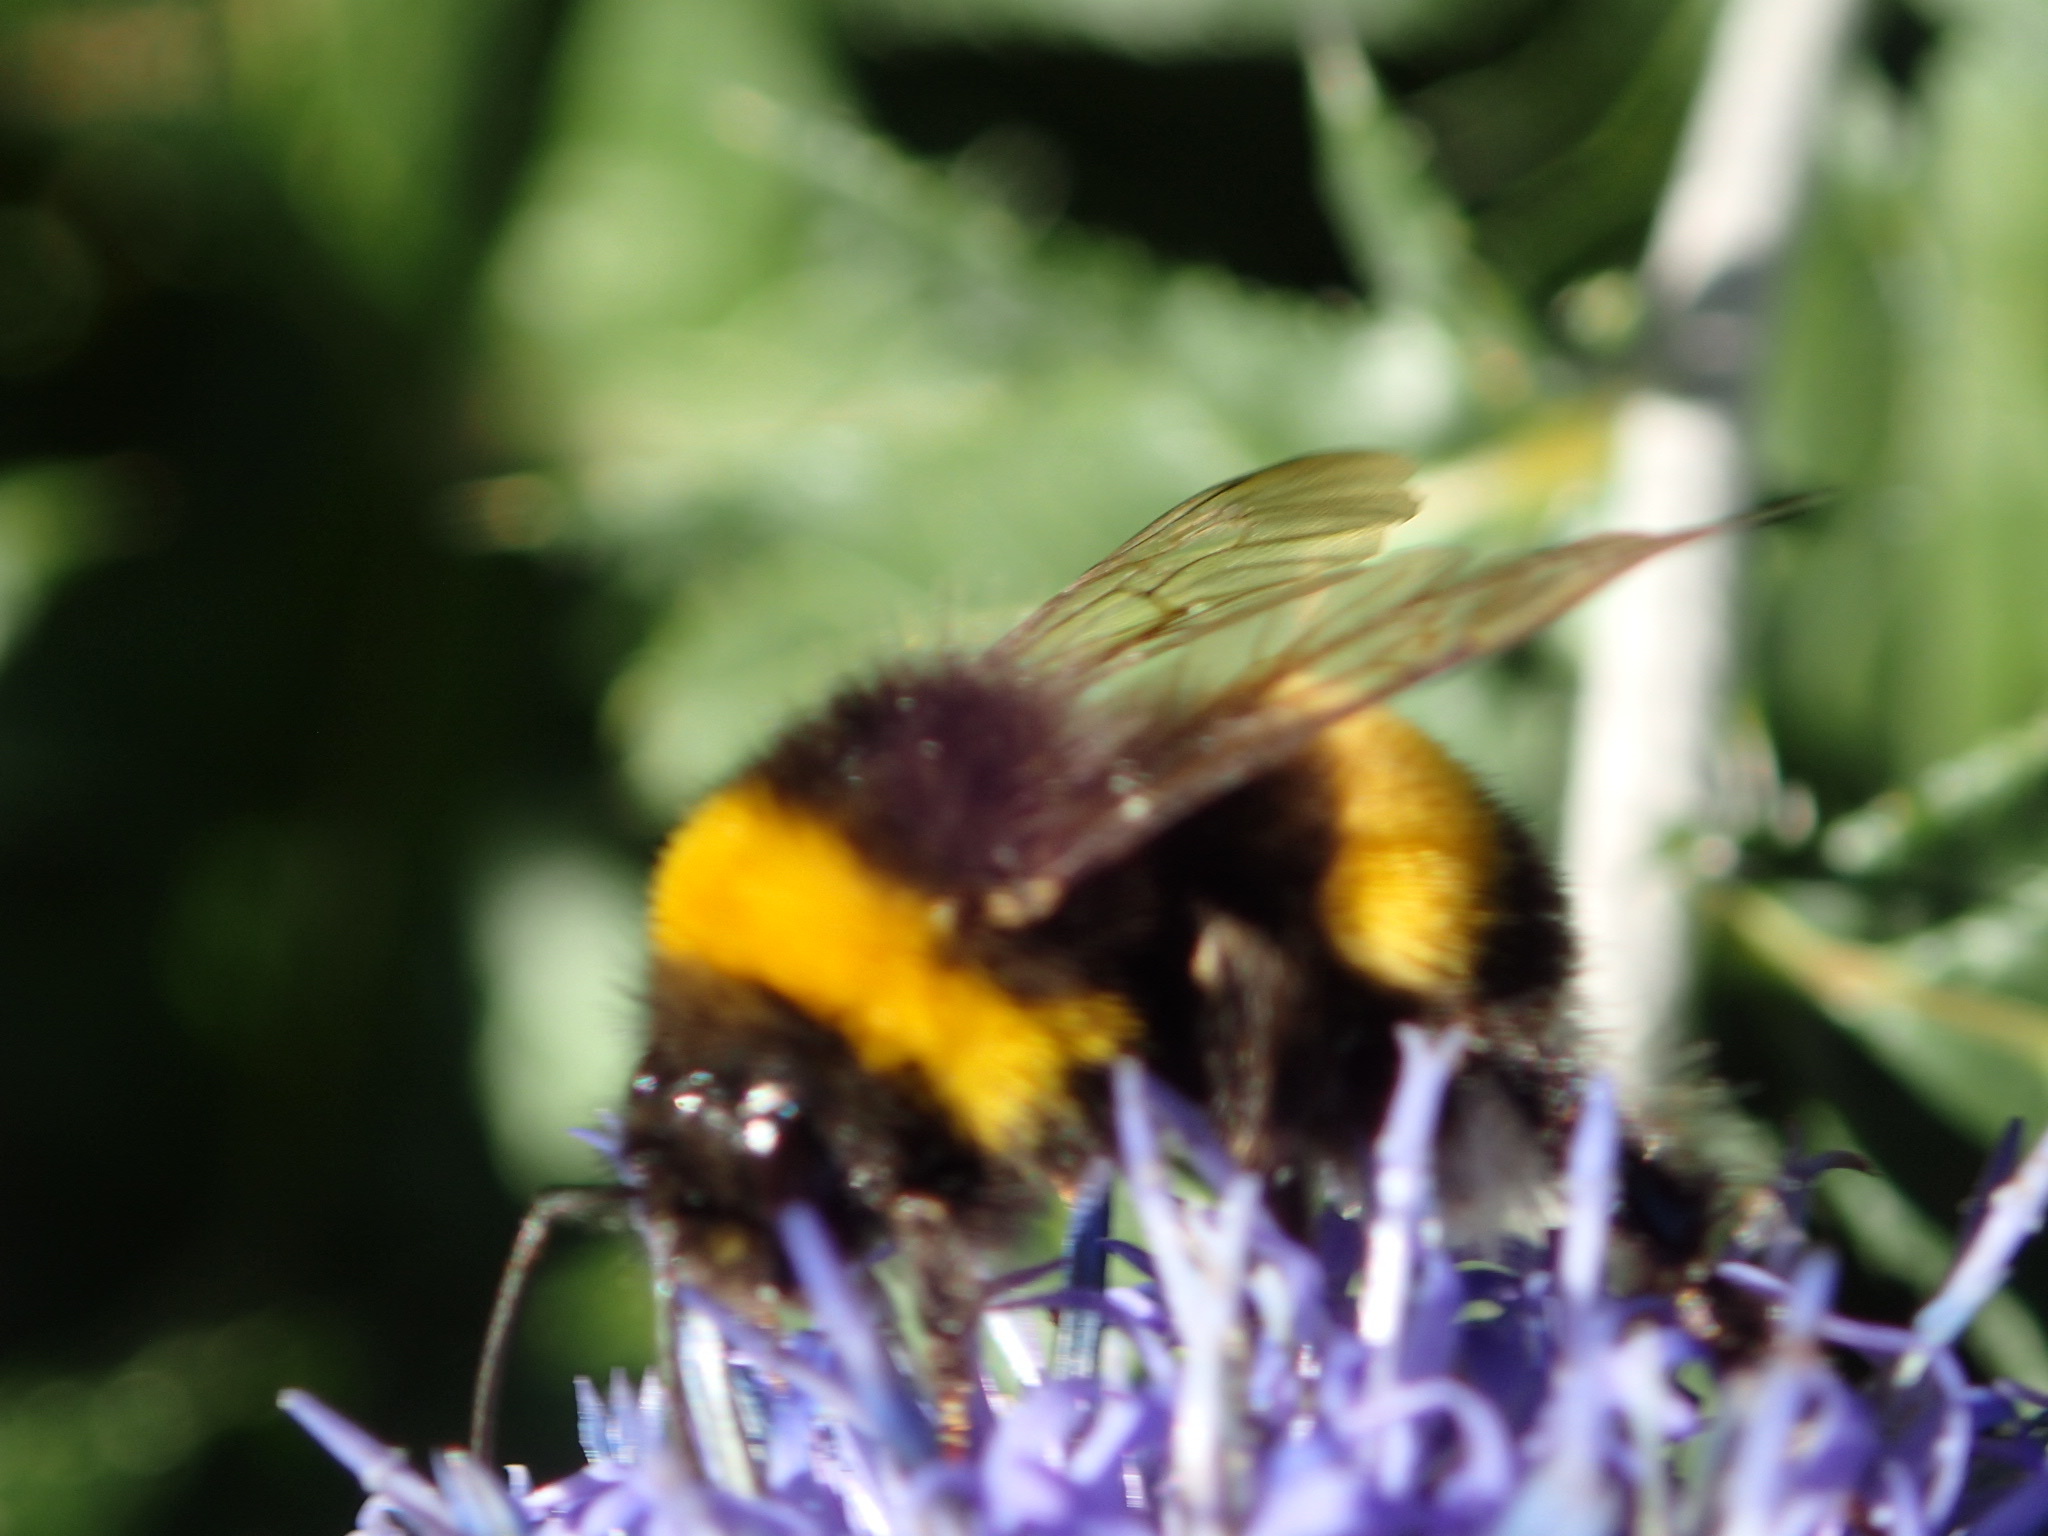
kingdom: Animalia
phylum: Arthropoda
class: Insecta
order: Hymenoptera
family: Apidae
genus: Bombus
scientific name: Bombus terrestris
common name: Buff-tailed bumblebee
